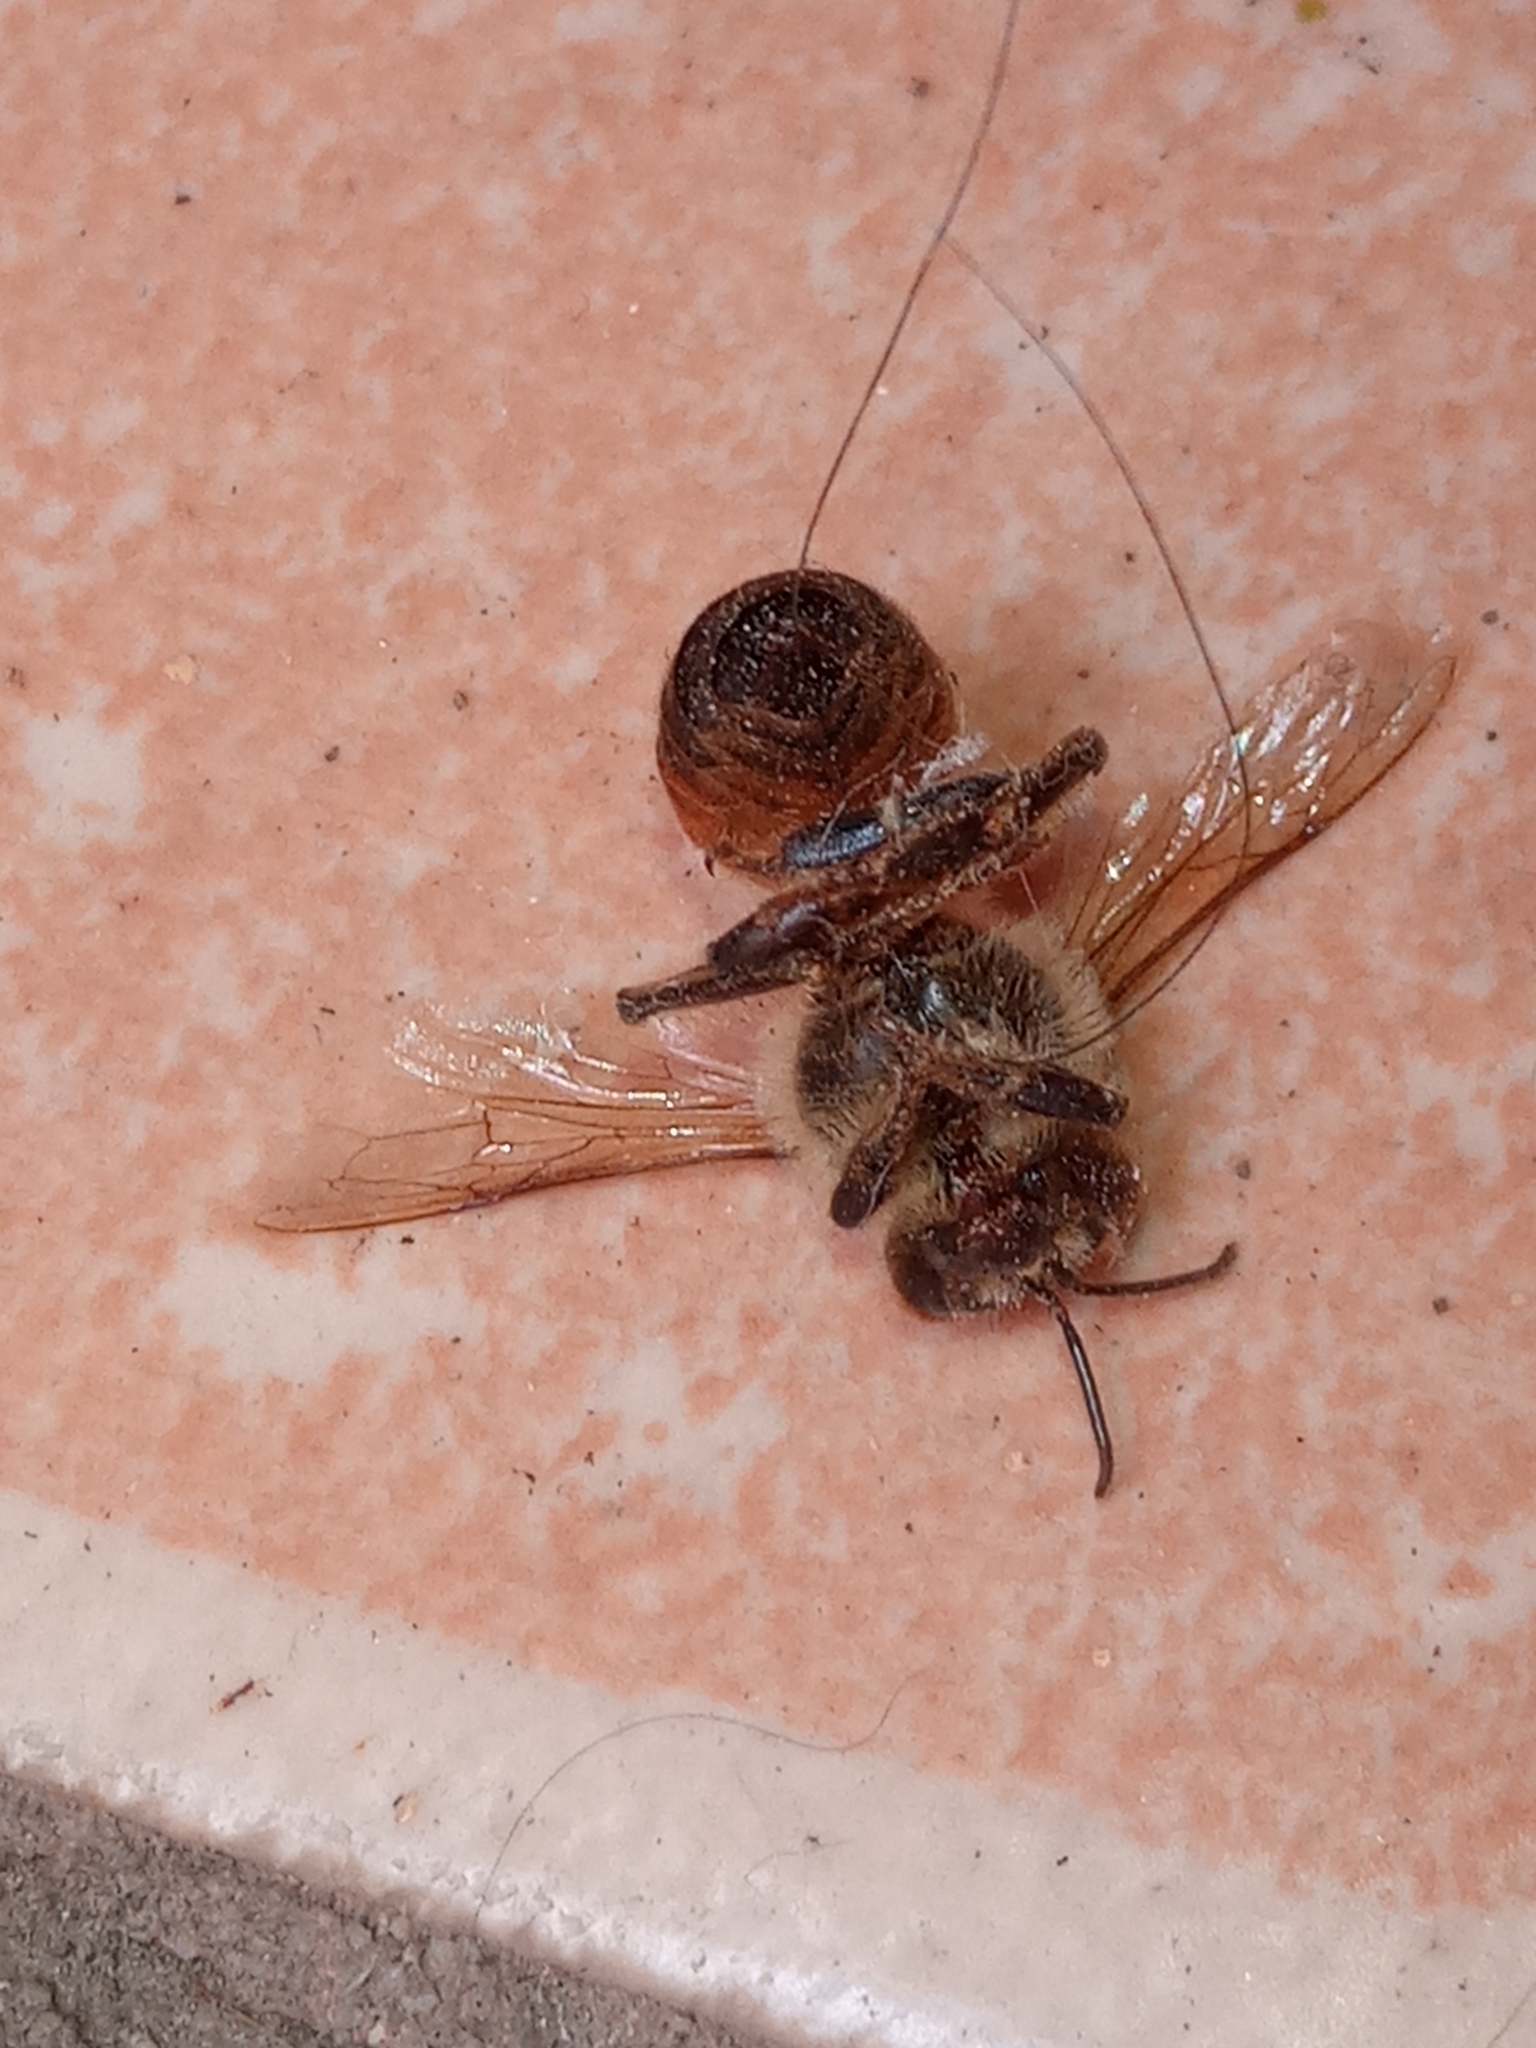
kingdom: Animalia
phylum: Arthropoda
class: Insecta
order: Hymenoptera
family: Apidae
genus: Apis
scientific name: Apis mellifera
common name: Honey bee
